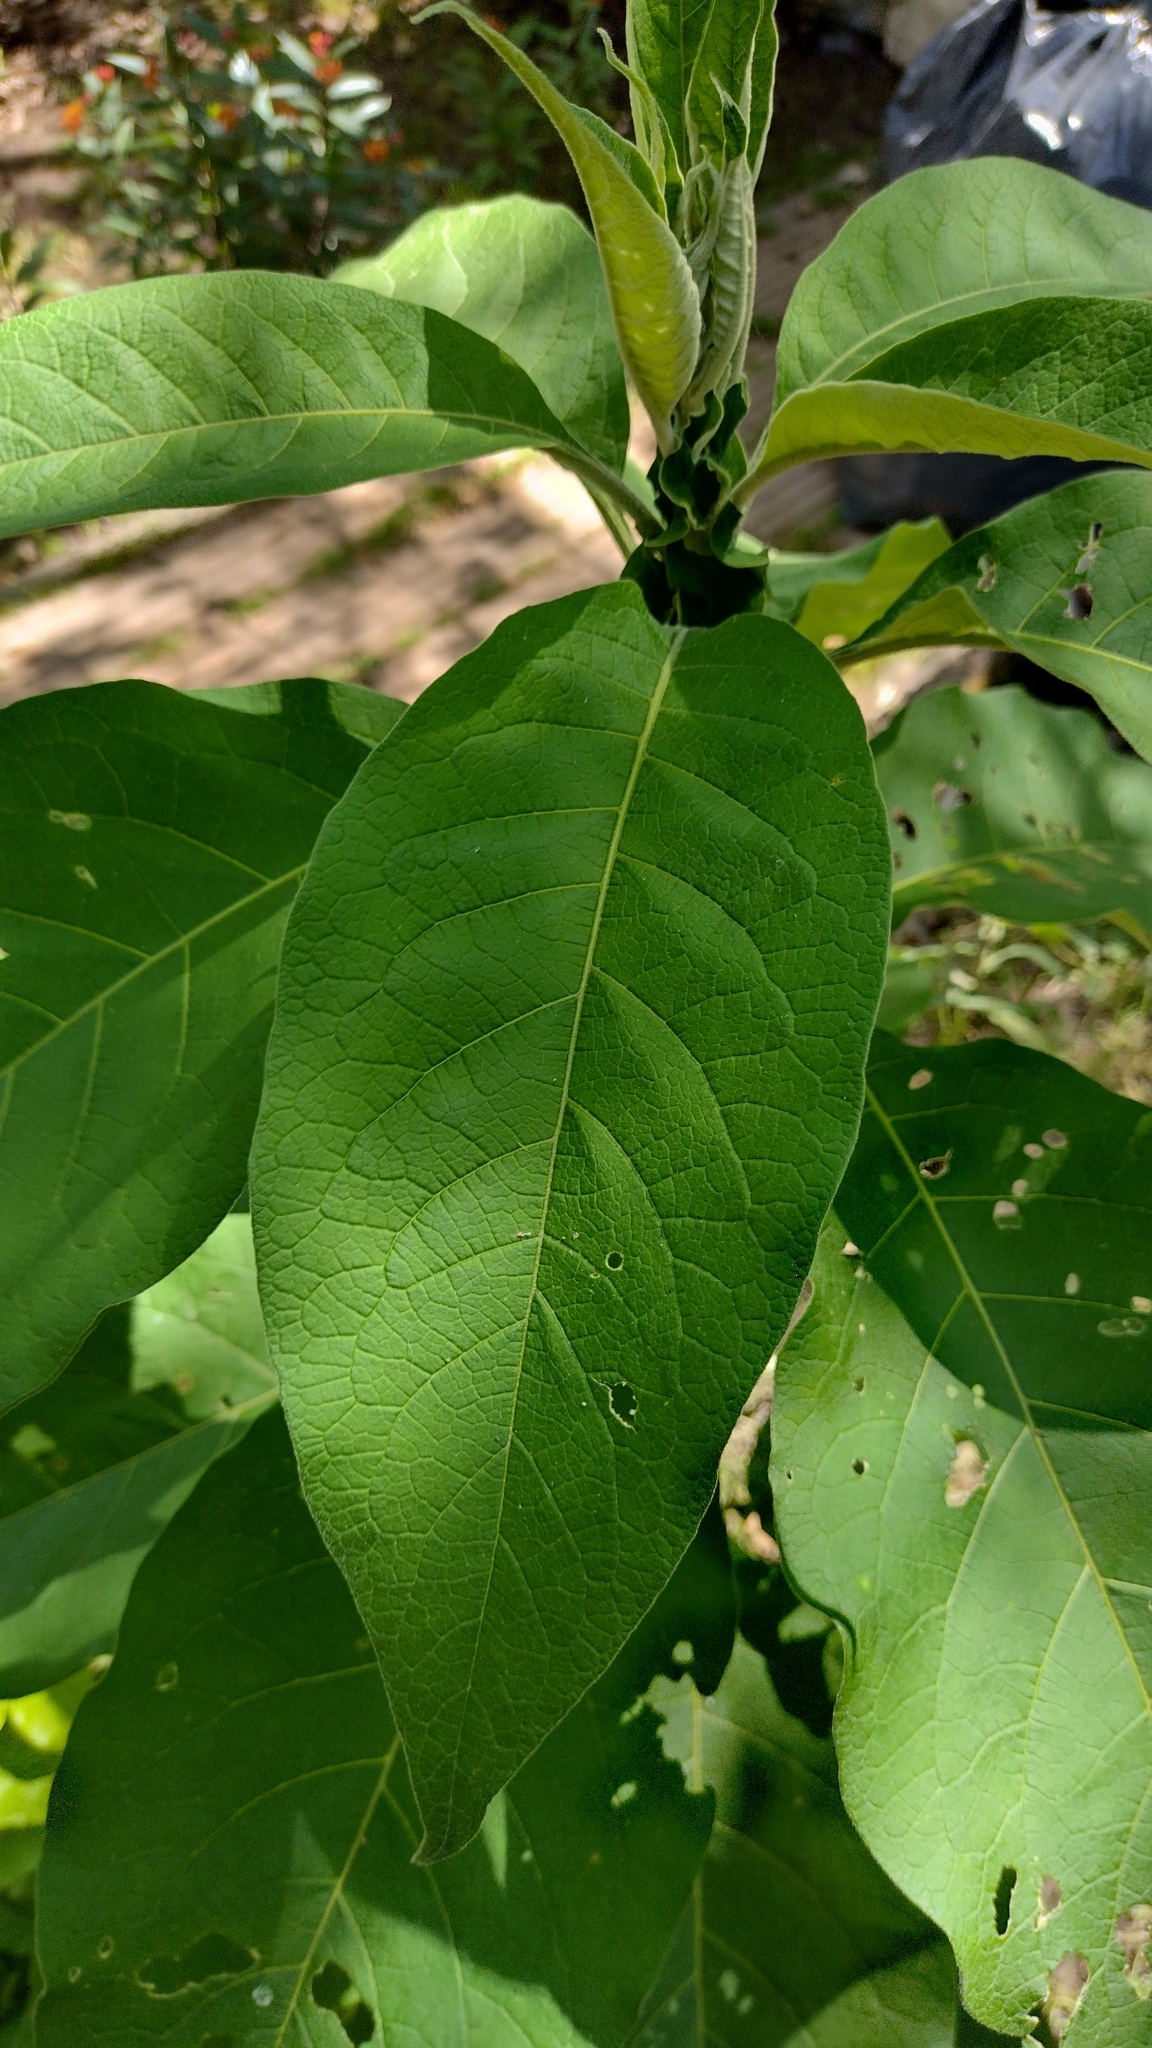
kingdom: Plantae
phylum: Tracheophyta
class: Magnoliopsida
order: Solanales
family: Solanaceae
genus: Solanum
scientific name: Solanum granulosoleprosum
